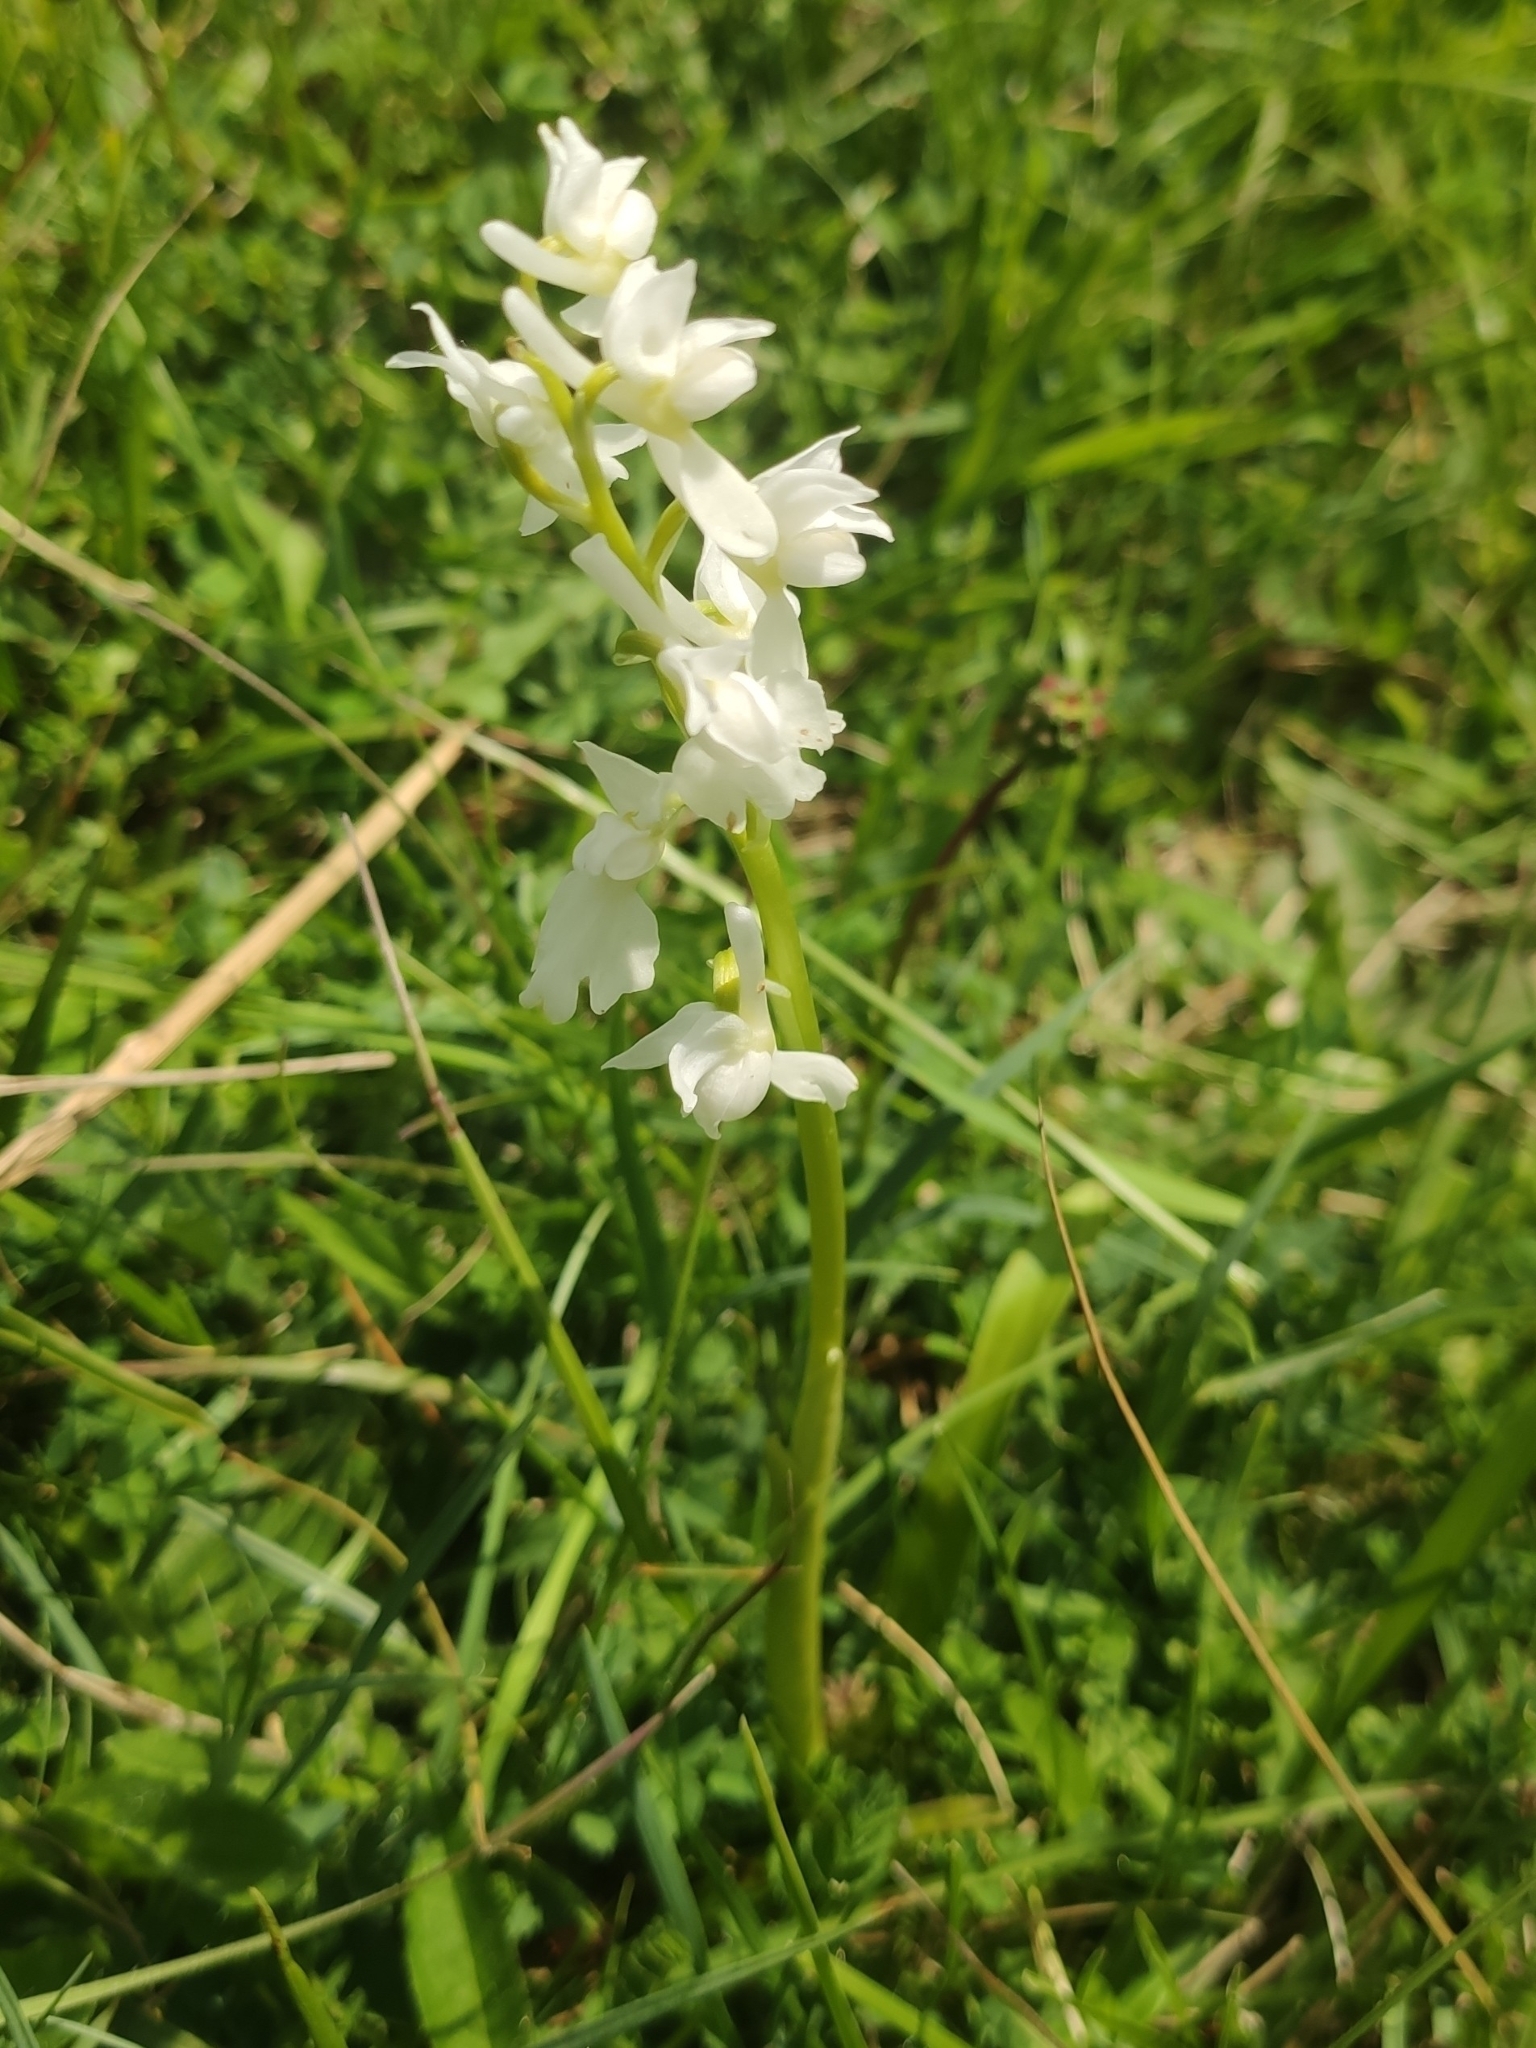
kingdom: Plantae
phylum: Tracheophyta
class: Liliopsida
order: Asparagales
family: Orchidaceae
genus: Orchis
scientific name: Orchis mascula
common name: Early-purple orchid
